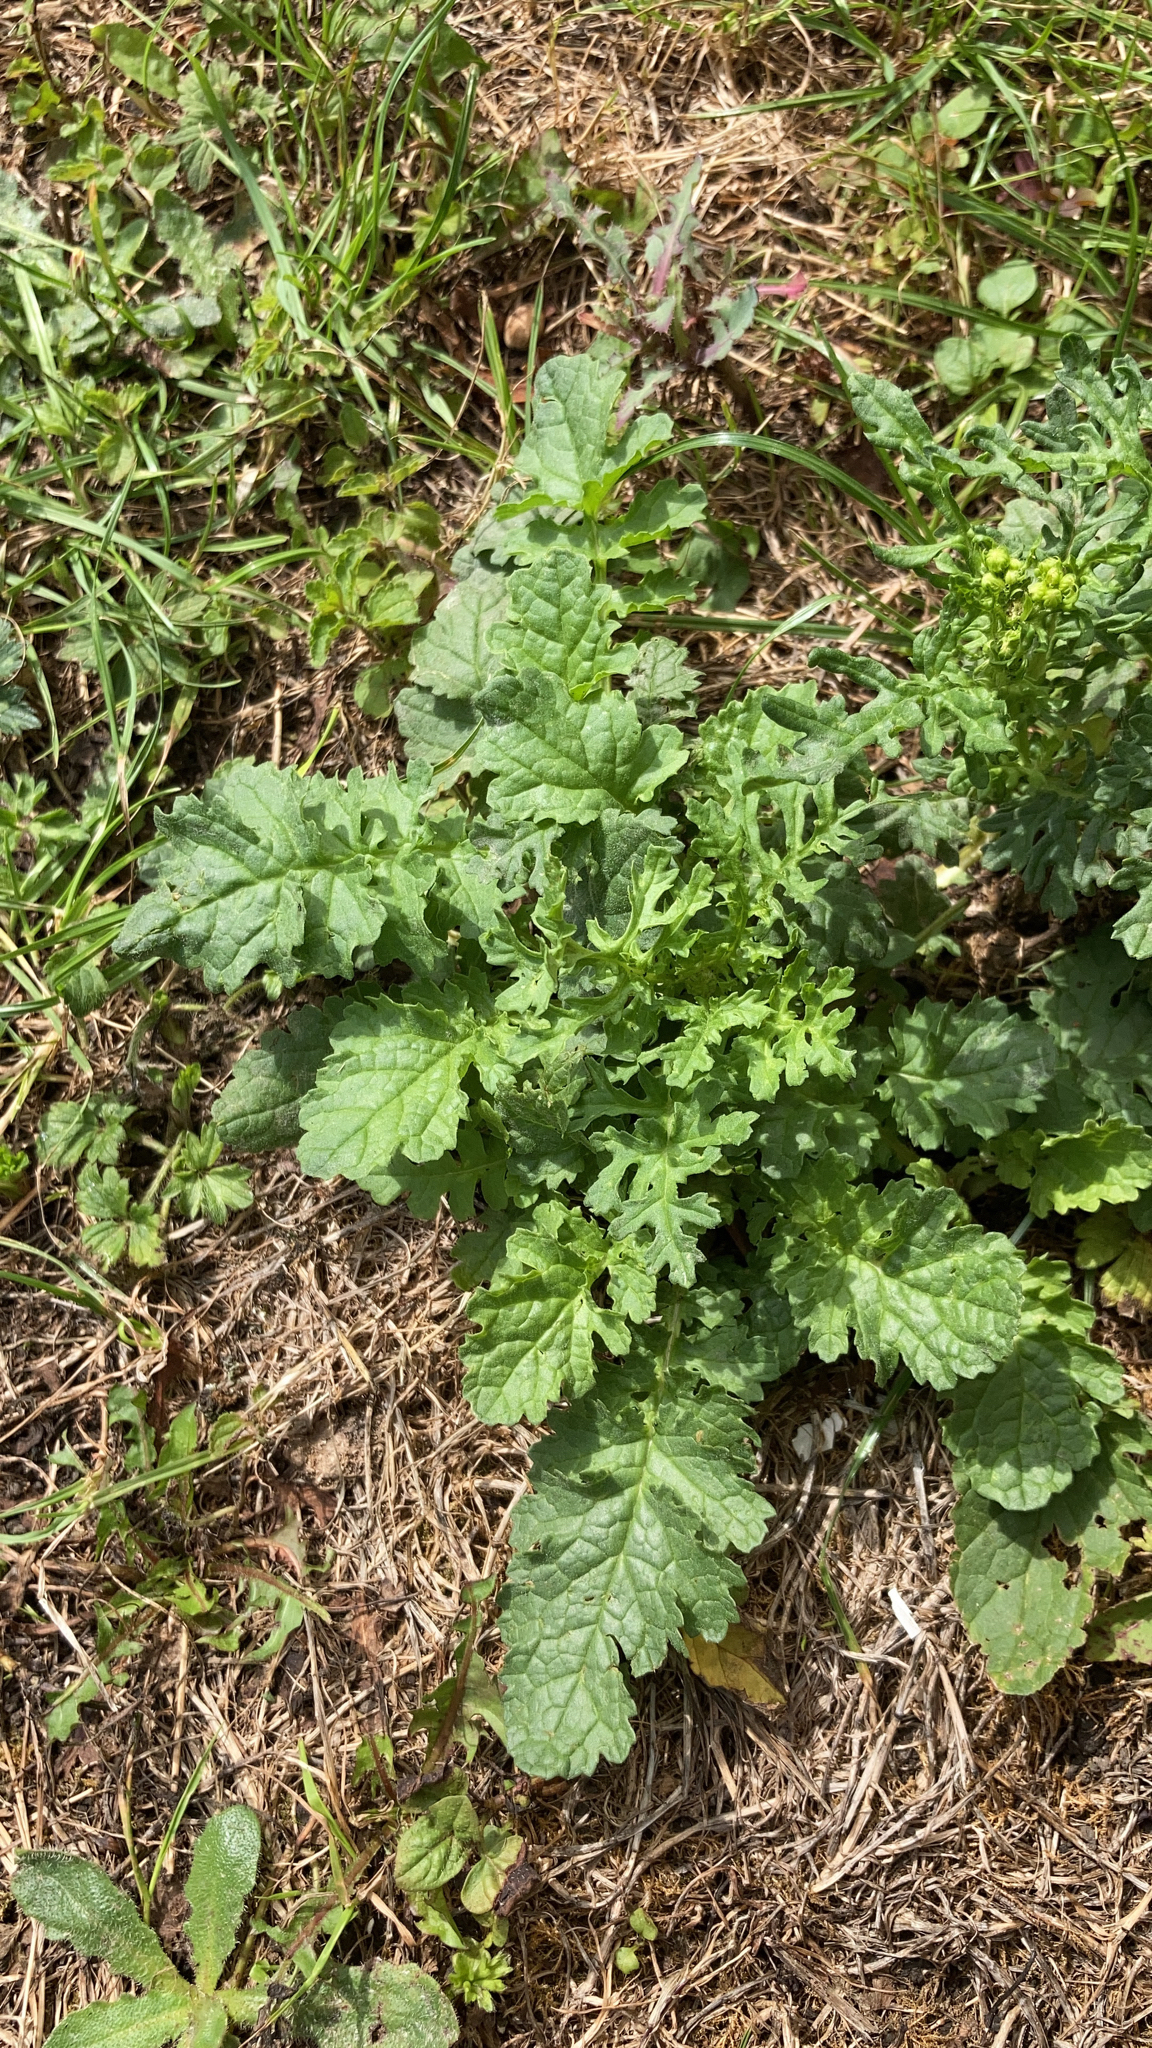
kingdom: Plantae
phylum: Tracheophyta
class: Magnoliopsida
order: Asterales
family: Asteraceae
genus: Jacobaea
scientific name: Jacobaea vulgaris
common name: Stinking willie
